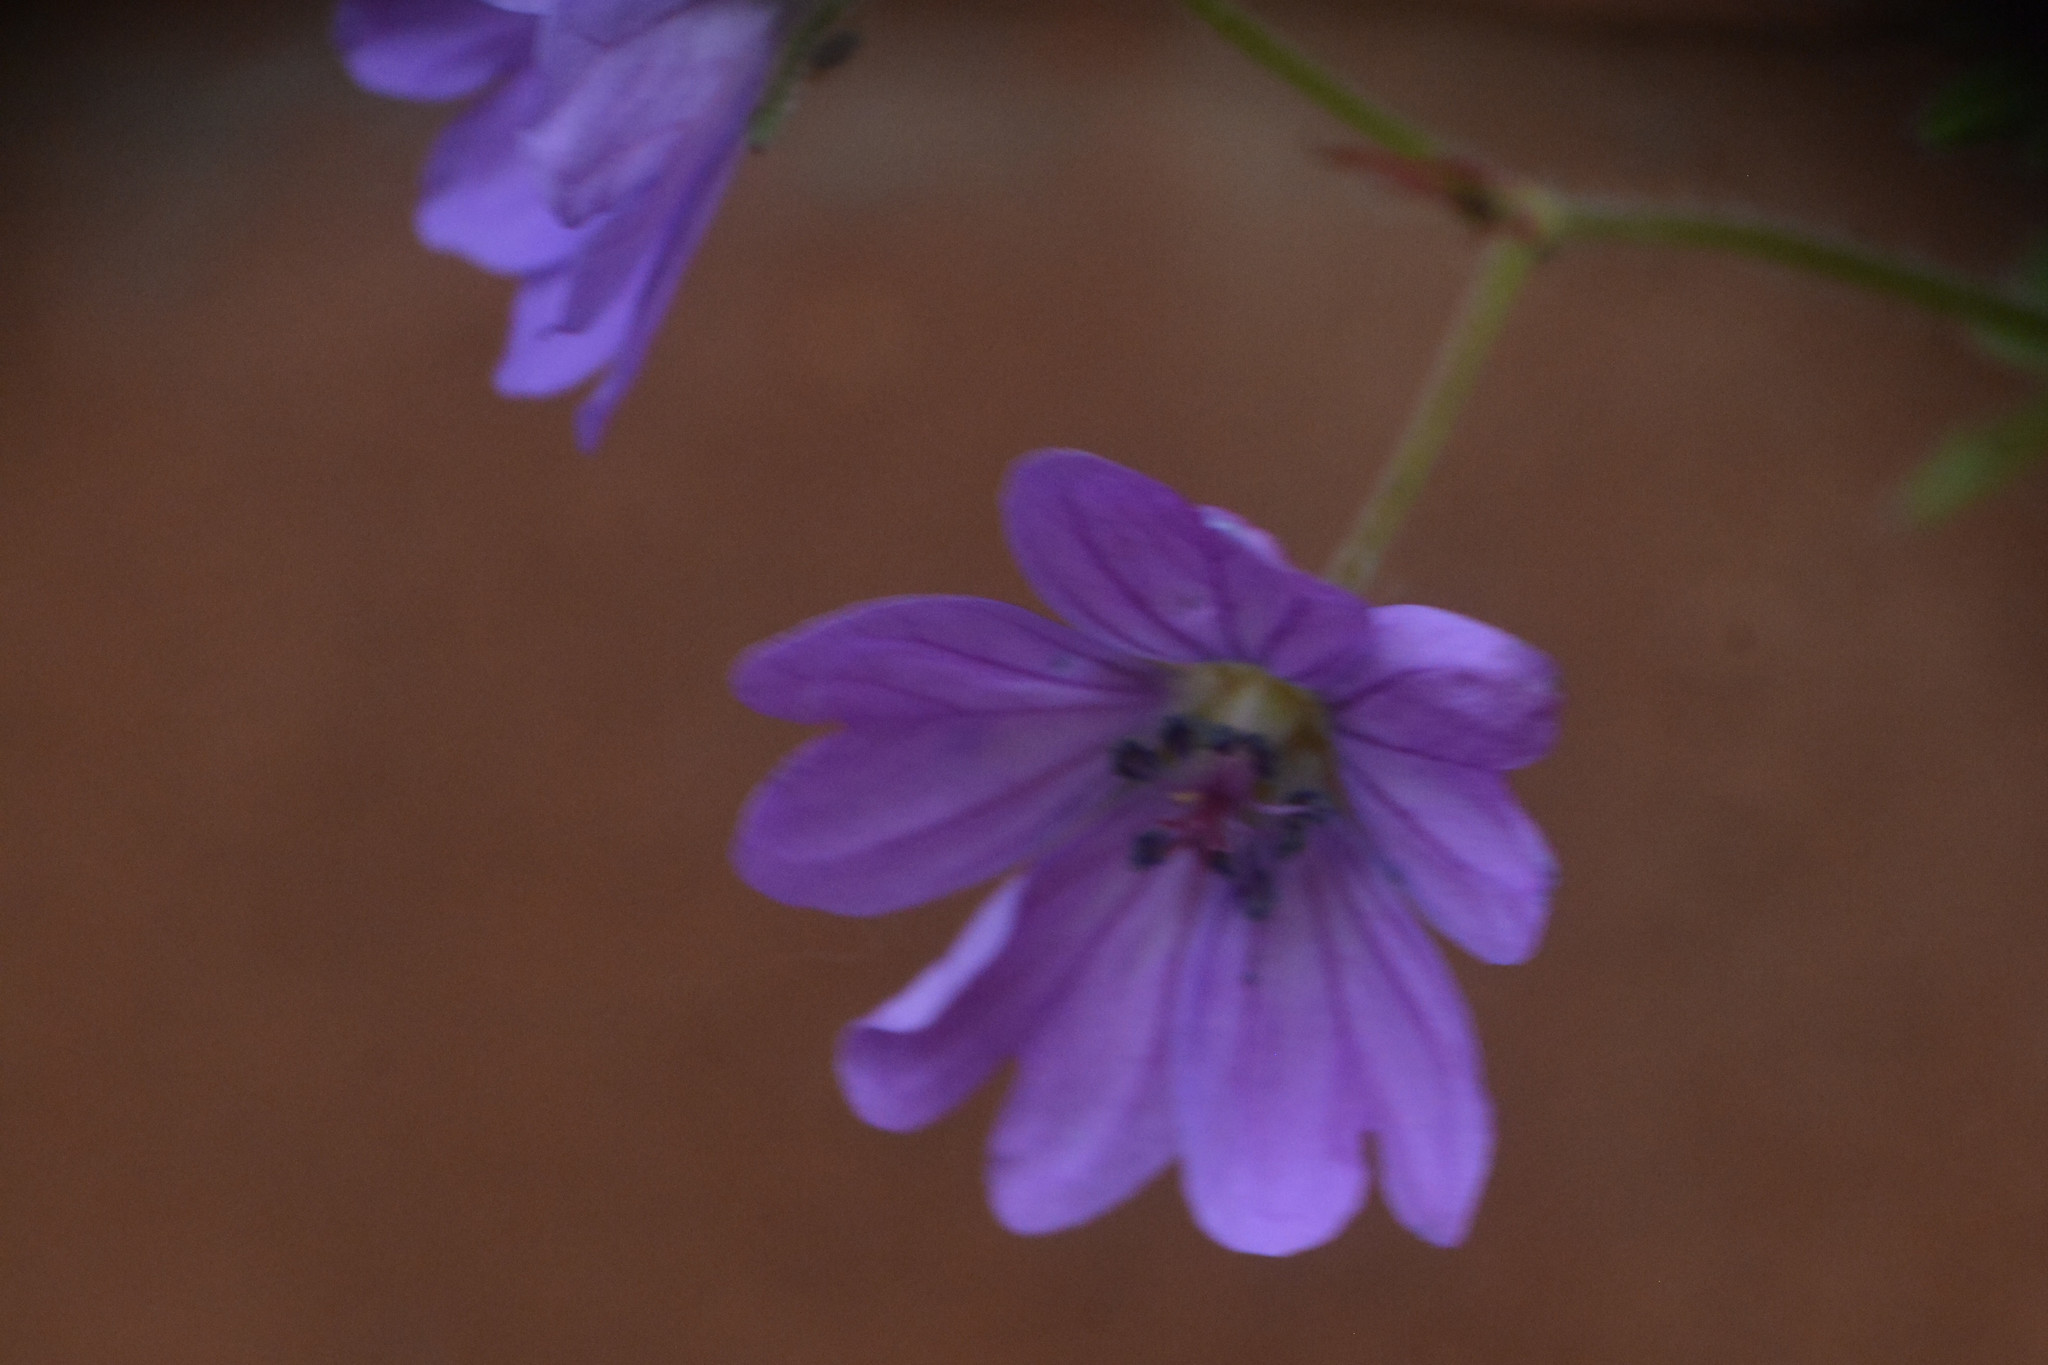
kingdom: Plantae
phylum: Tracheophyta
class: Magnoliopsida
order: Geraniales
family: Geraniaceae
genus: Geranium
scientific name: Geranium pyrenaicum
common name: Hedgerow crane's-bill
